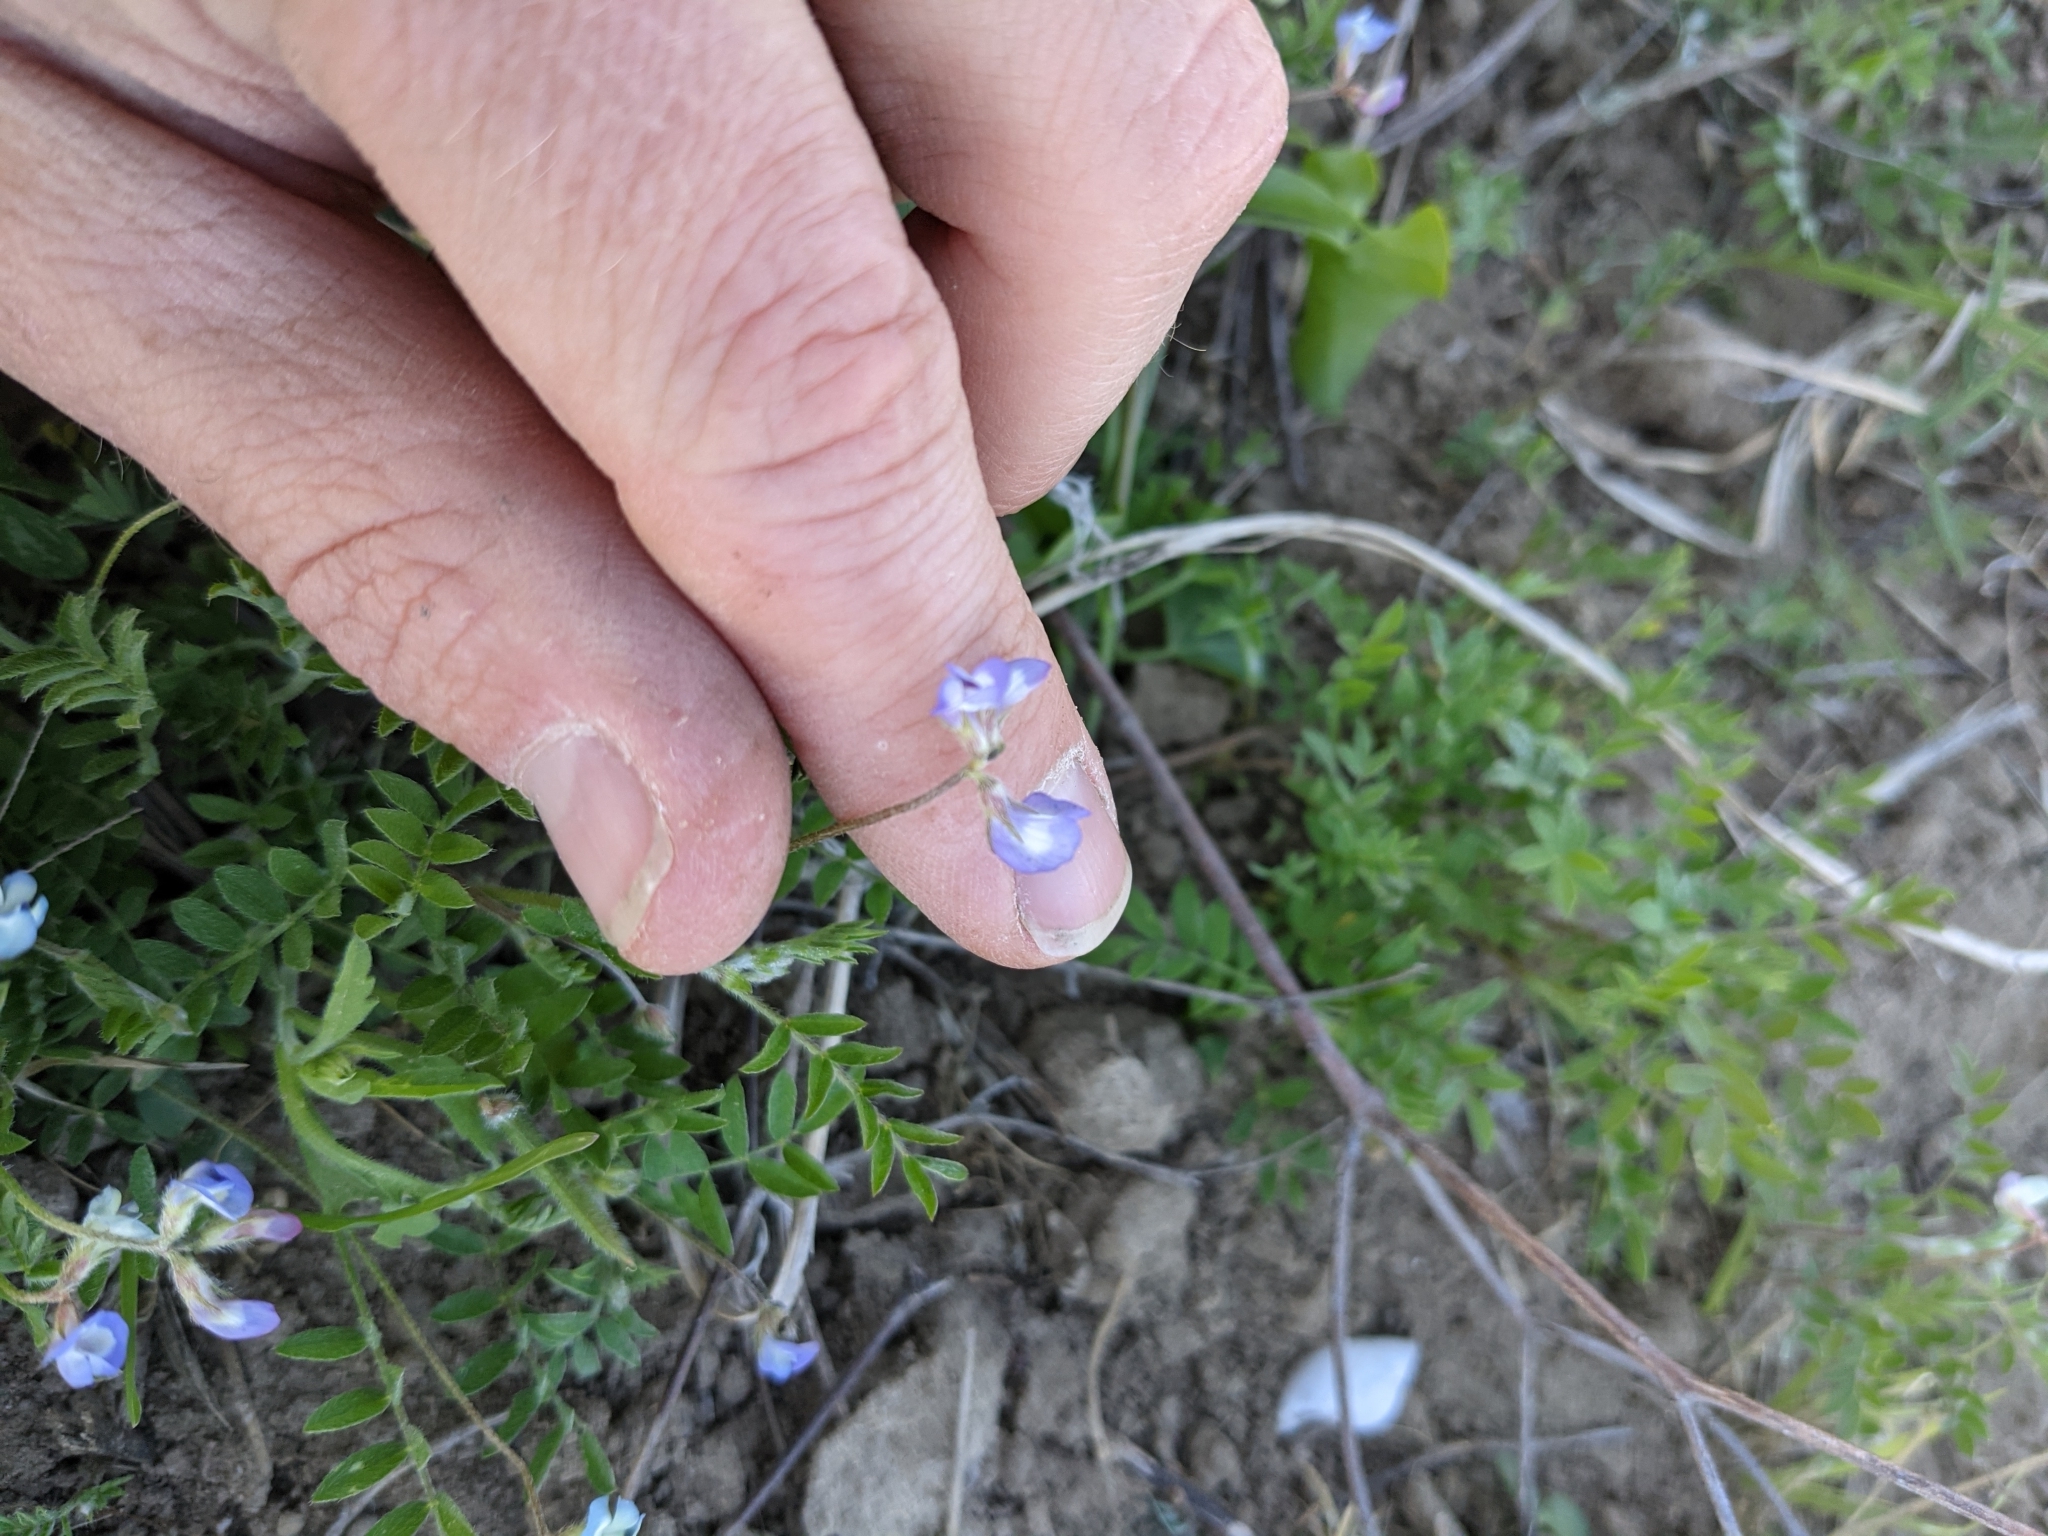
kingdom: Plantae
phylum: Tracheophyta
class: Magnoliopsida
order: Fabales
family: Fabaceae
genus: Astragalus
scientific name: Astragalus nuttallianus
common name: Smallflowered milkvetch
